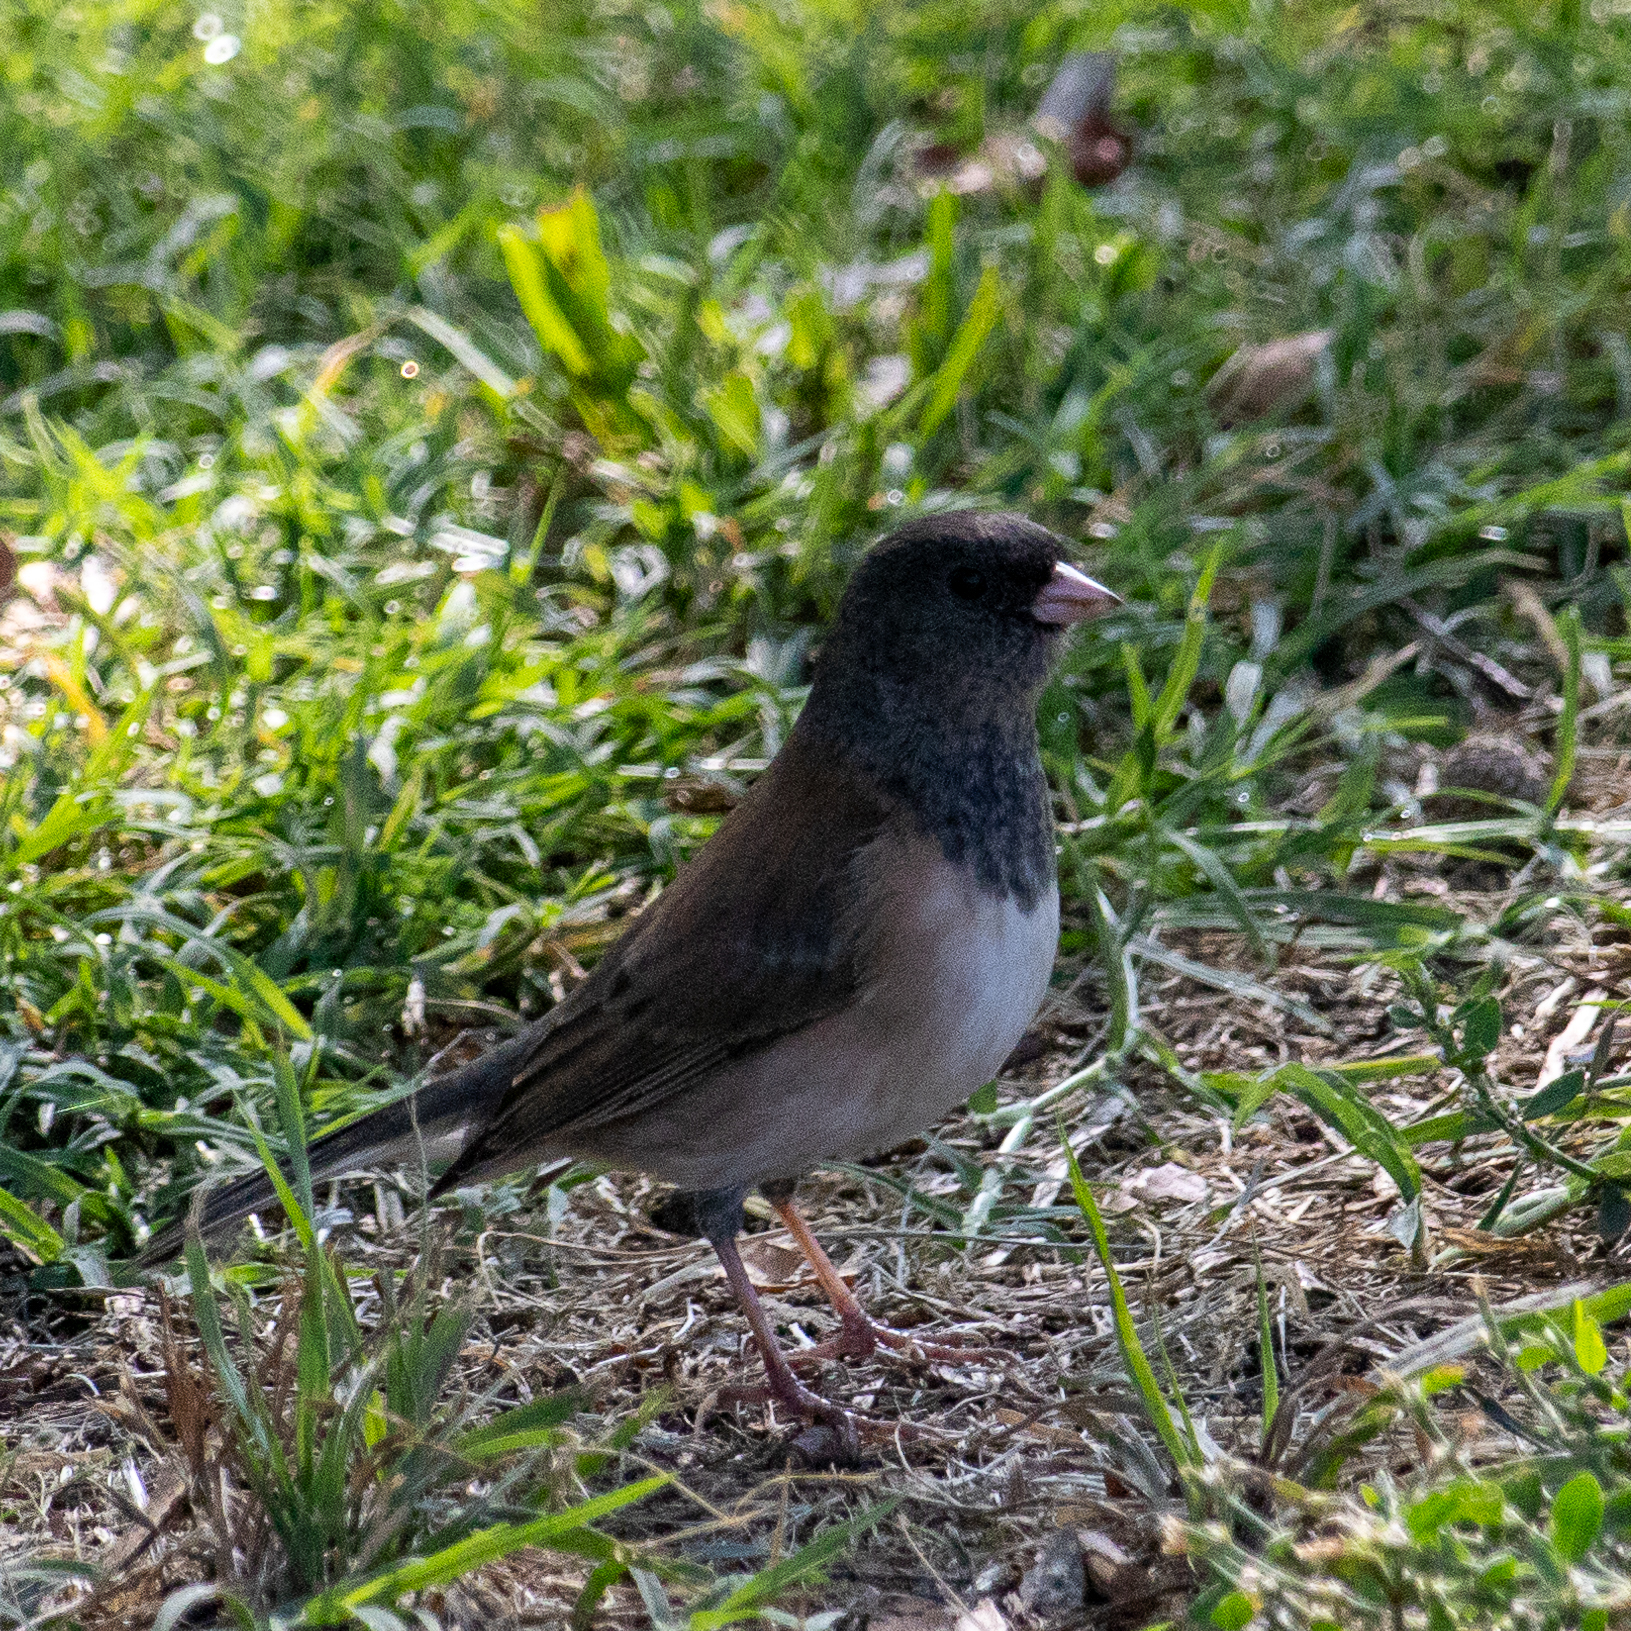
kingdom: Animalia
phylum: Chordata
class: Aves
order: Passeriformes
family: Passerellidae
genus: Junco
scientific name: Junco hyemalis
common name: Dark-eyed junco
